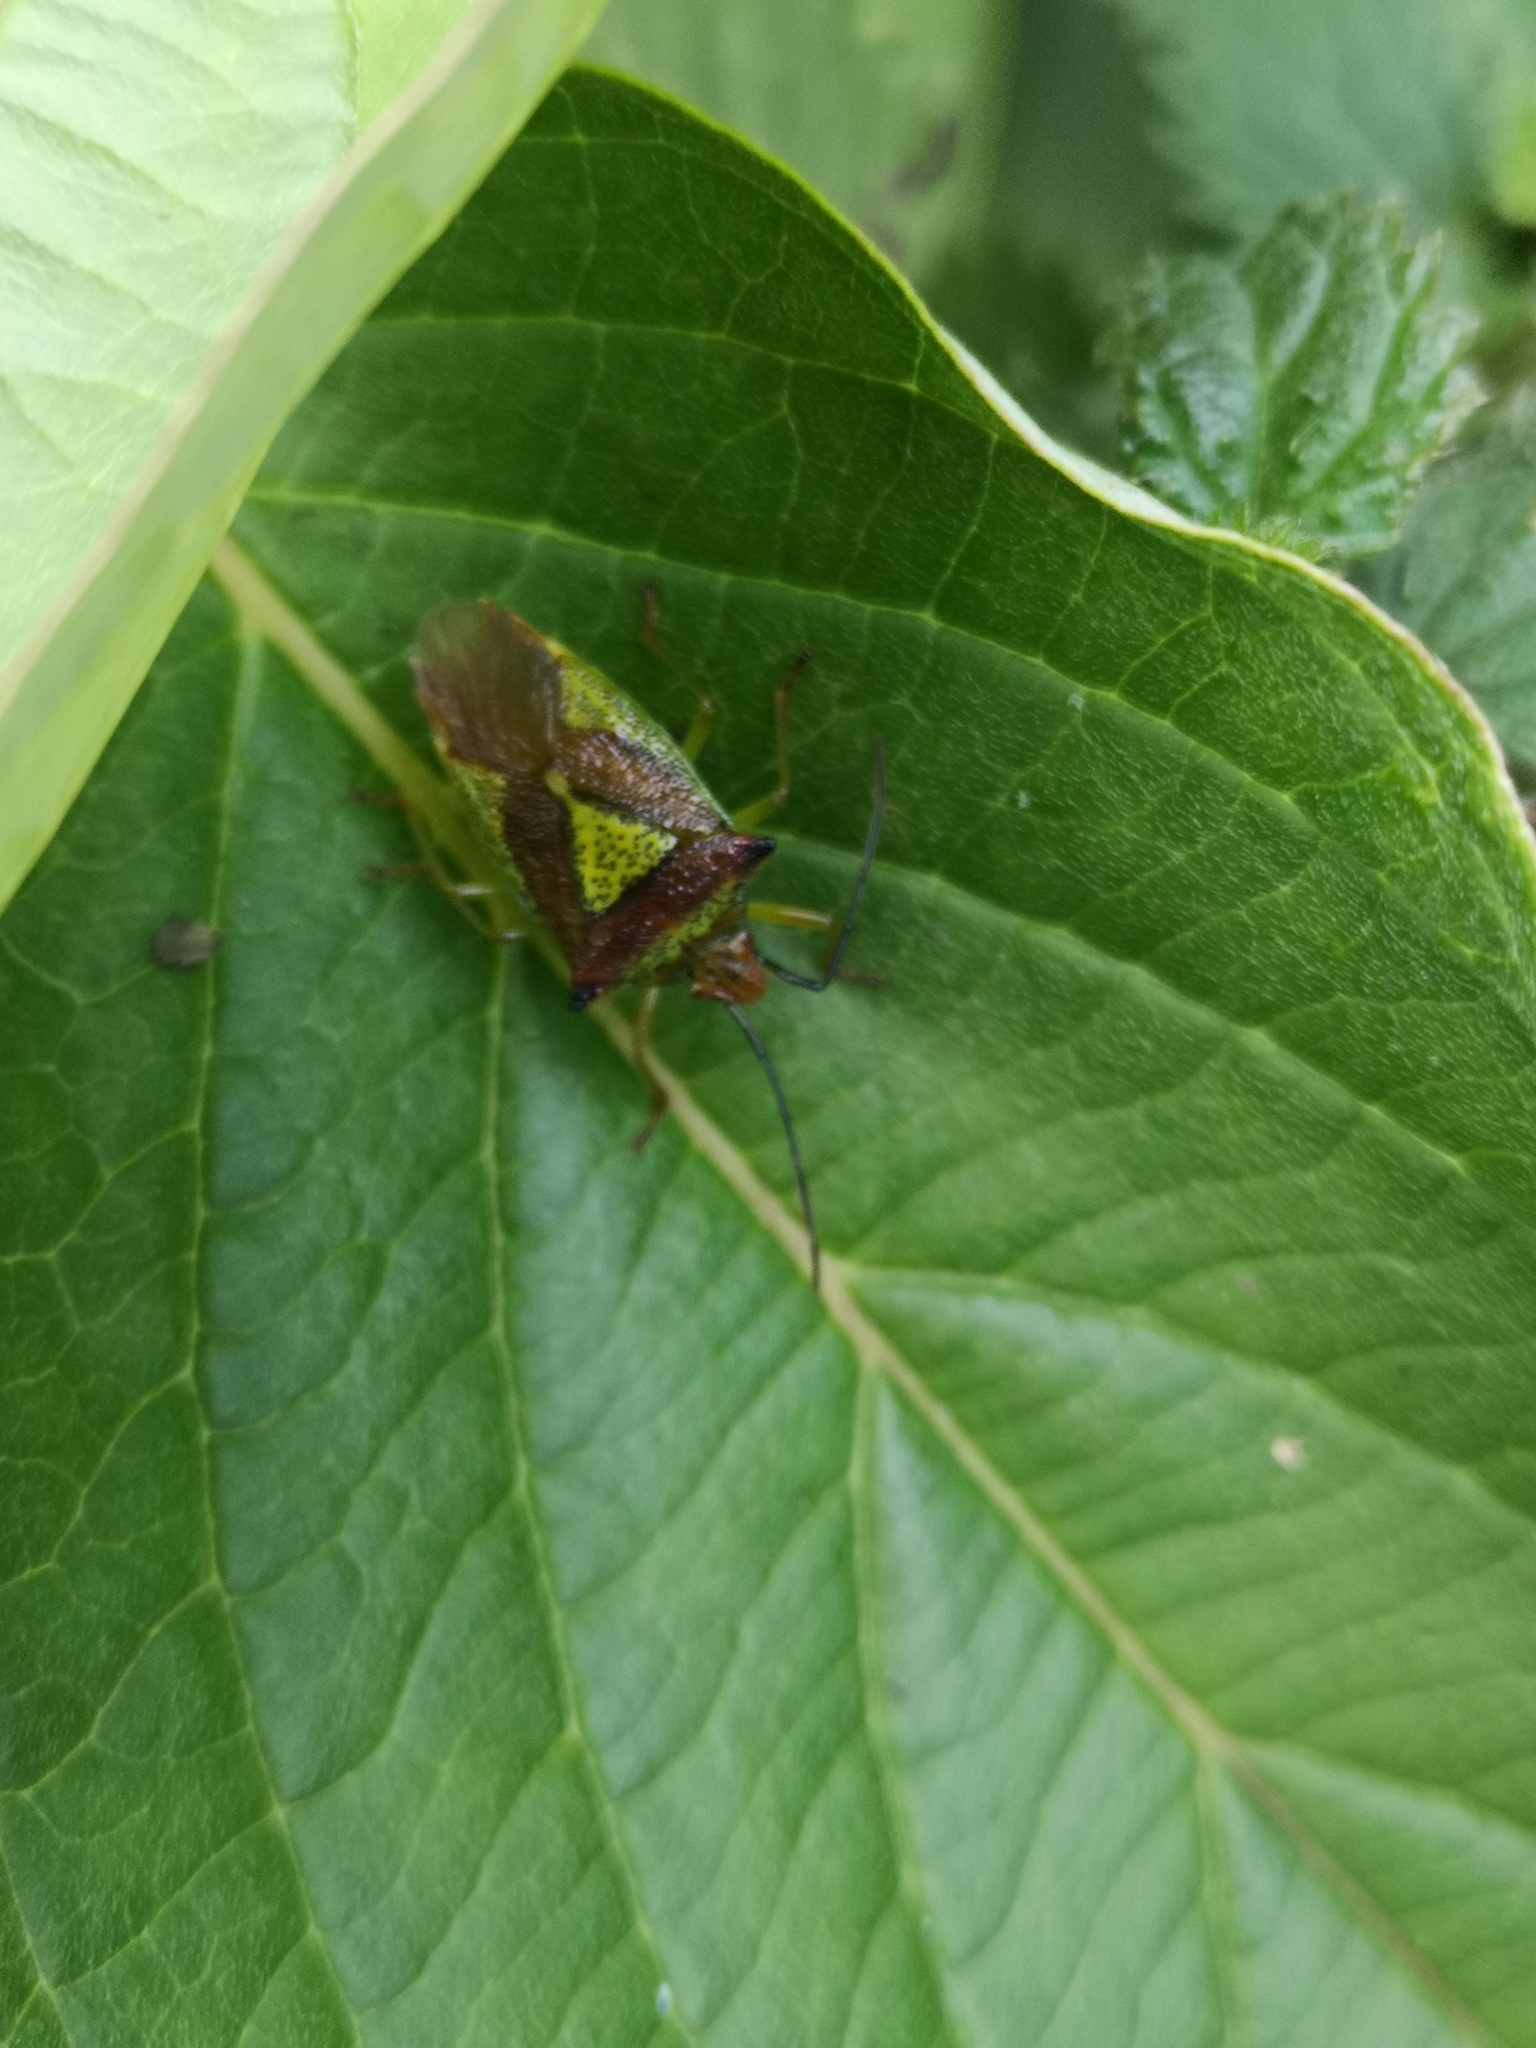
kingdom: Animalia
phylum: Arthropoda
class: Insecta
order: Hemiptera
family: Acanthosomatidae
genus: Acanthosoma
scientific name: Acanthosoma haemorrhoidale
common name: Hawthorn shieldbug
